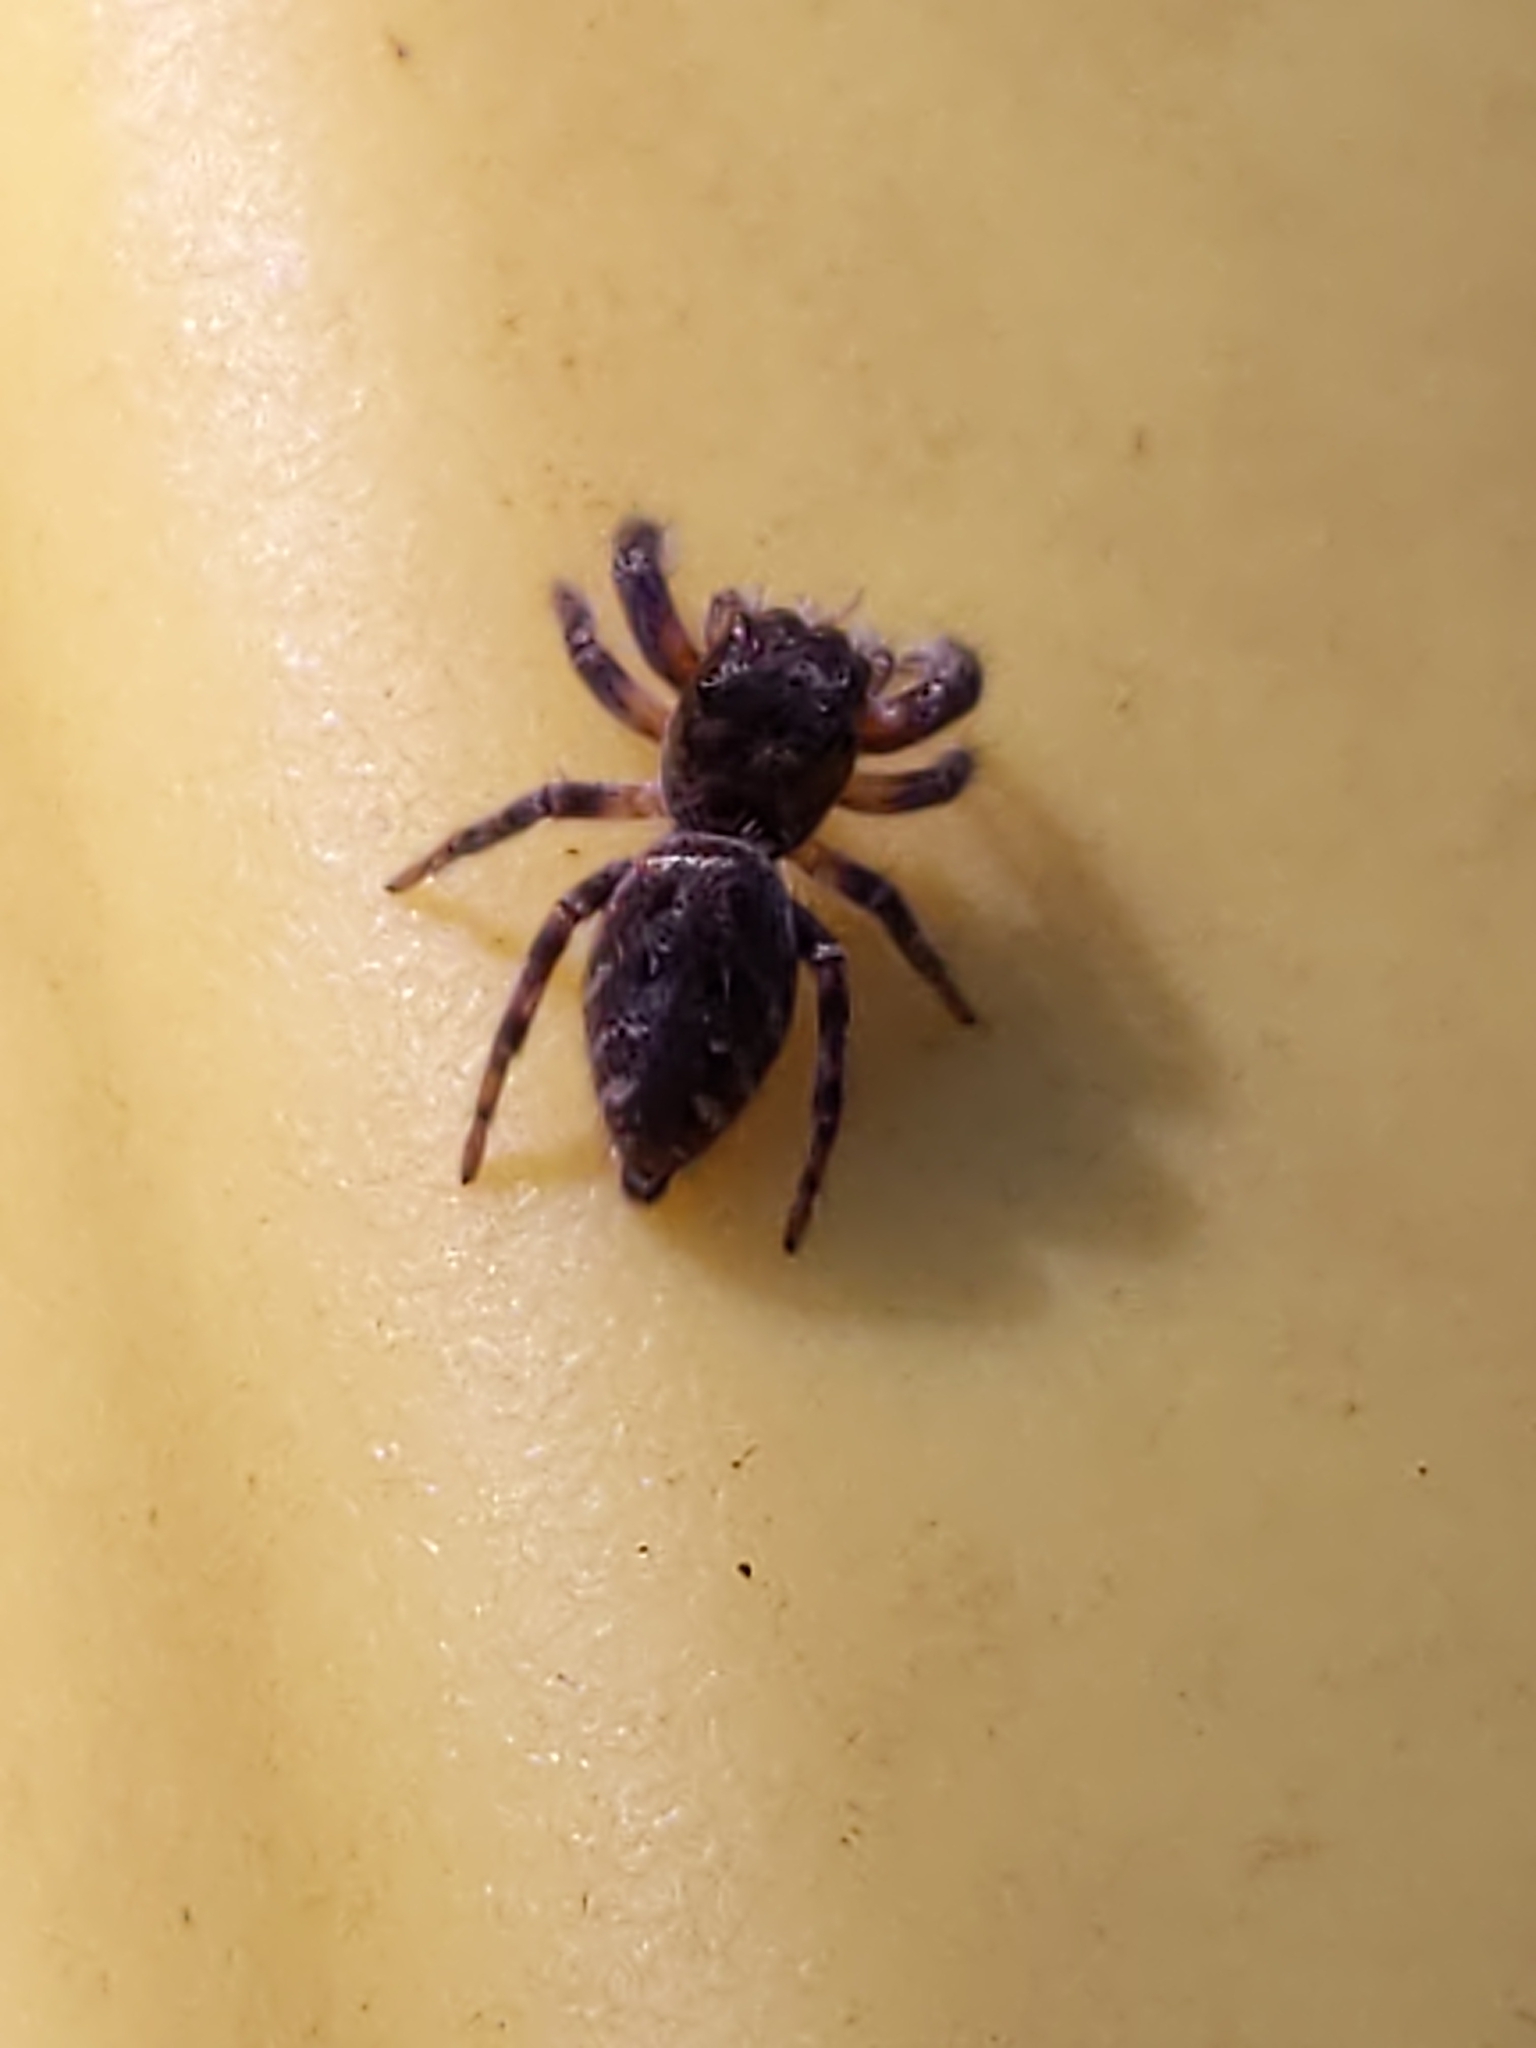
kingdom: Animalia
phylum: Arthropoda
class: Arachnida
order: Araneae
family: Salticidae
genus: Eris
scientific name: Eris militaris
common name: Bronze jumper
